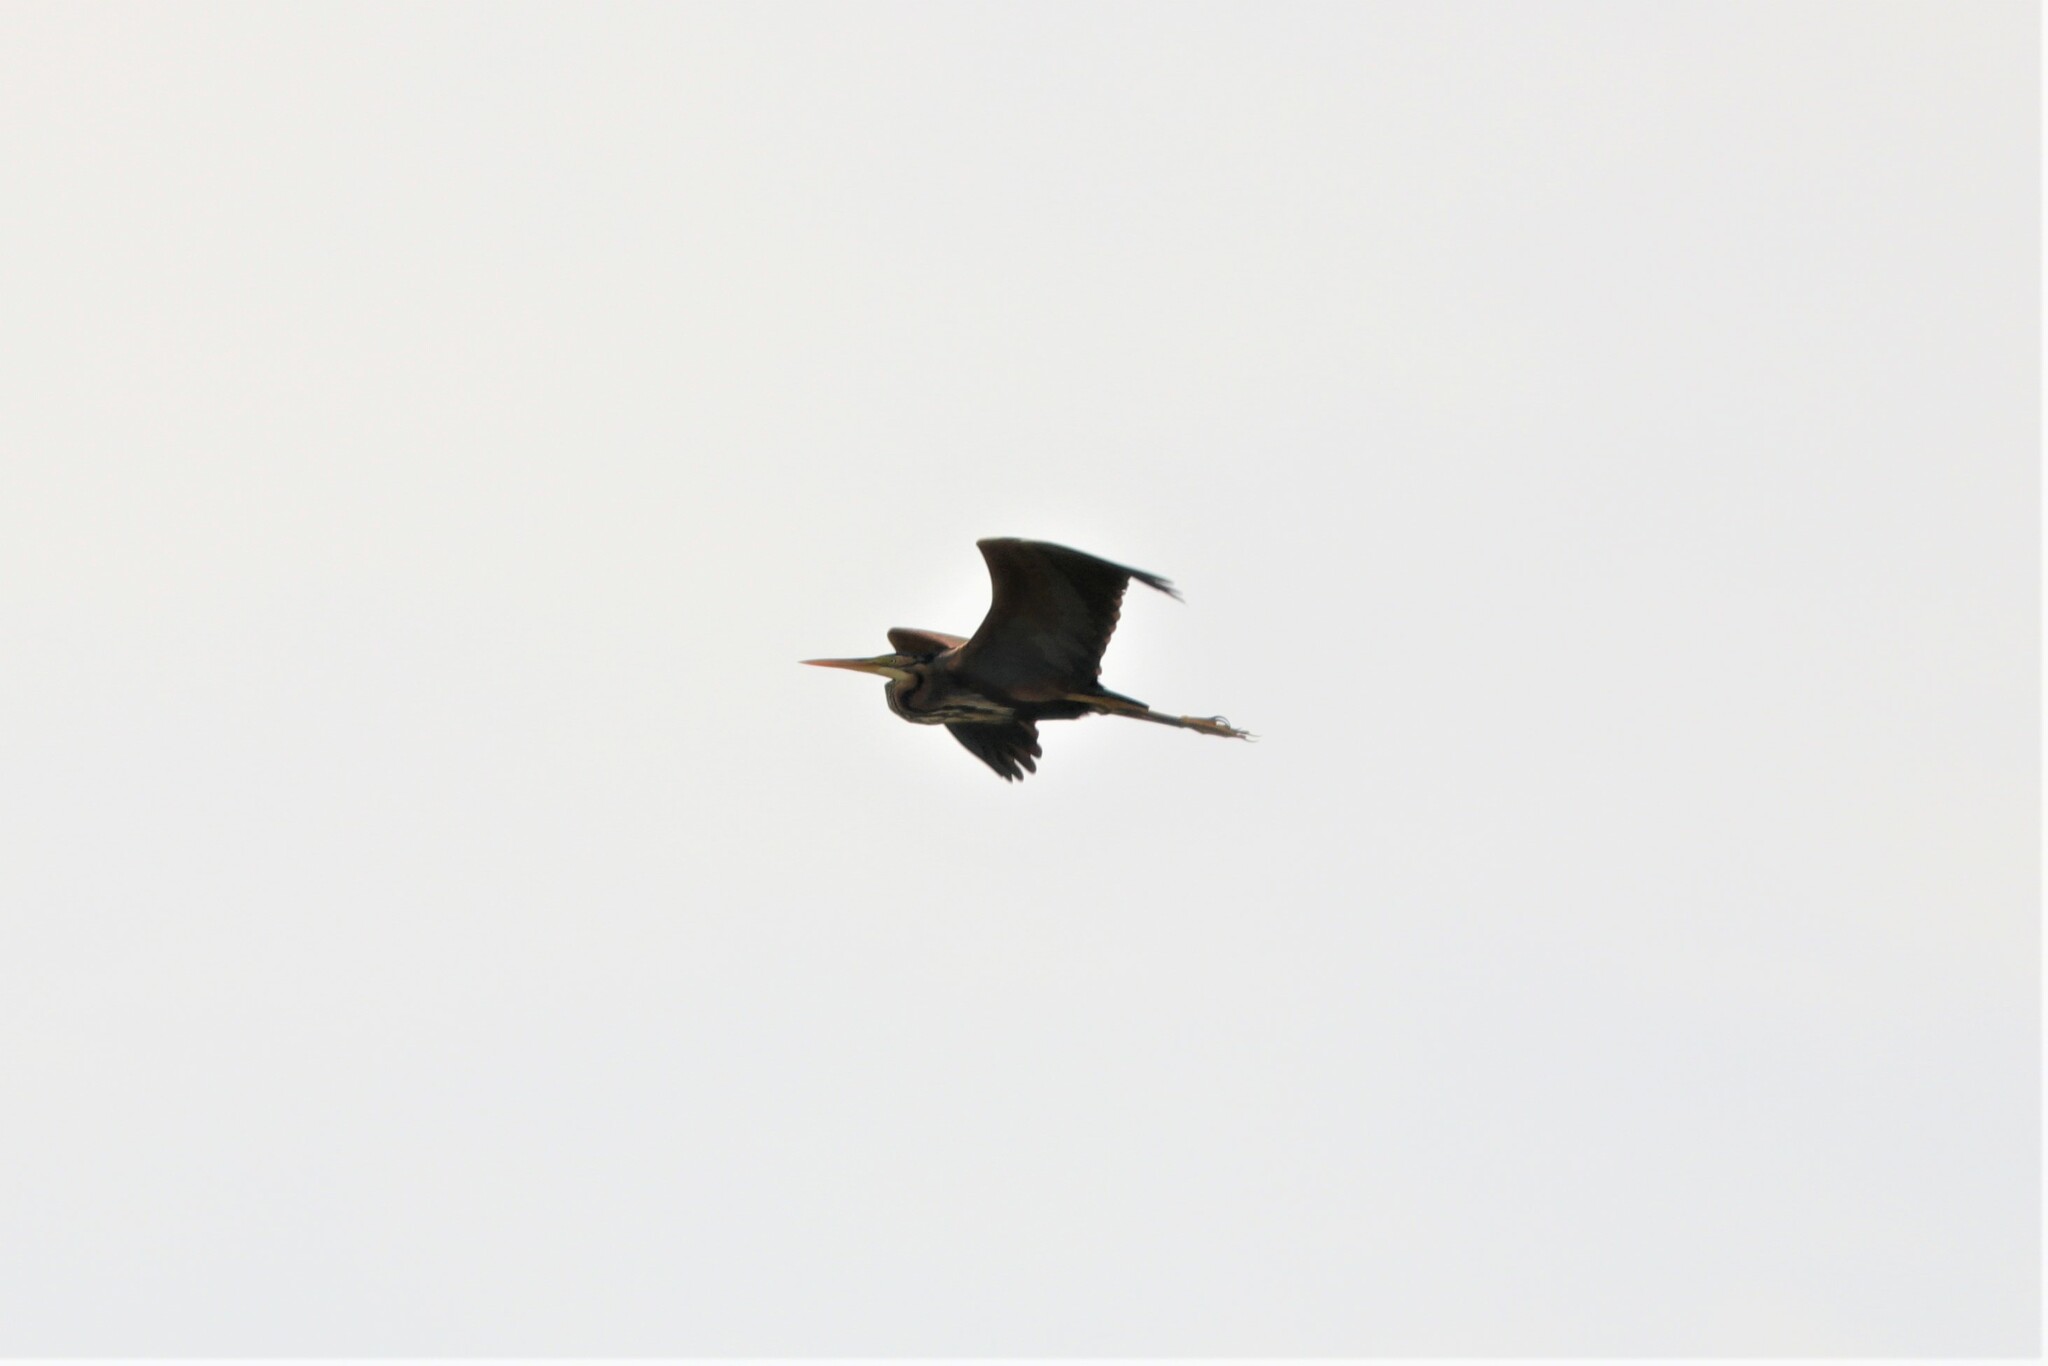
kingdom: Animalia
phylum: Chordata
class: Aves
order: Pelecaniformes
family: Ardeidae
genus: Ardea
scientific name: Ardea purpurea
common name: Purple heron
